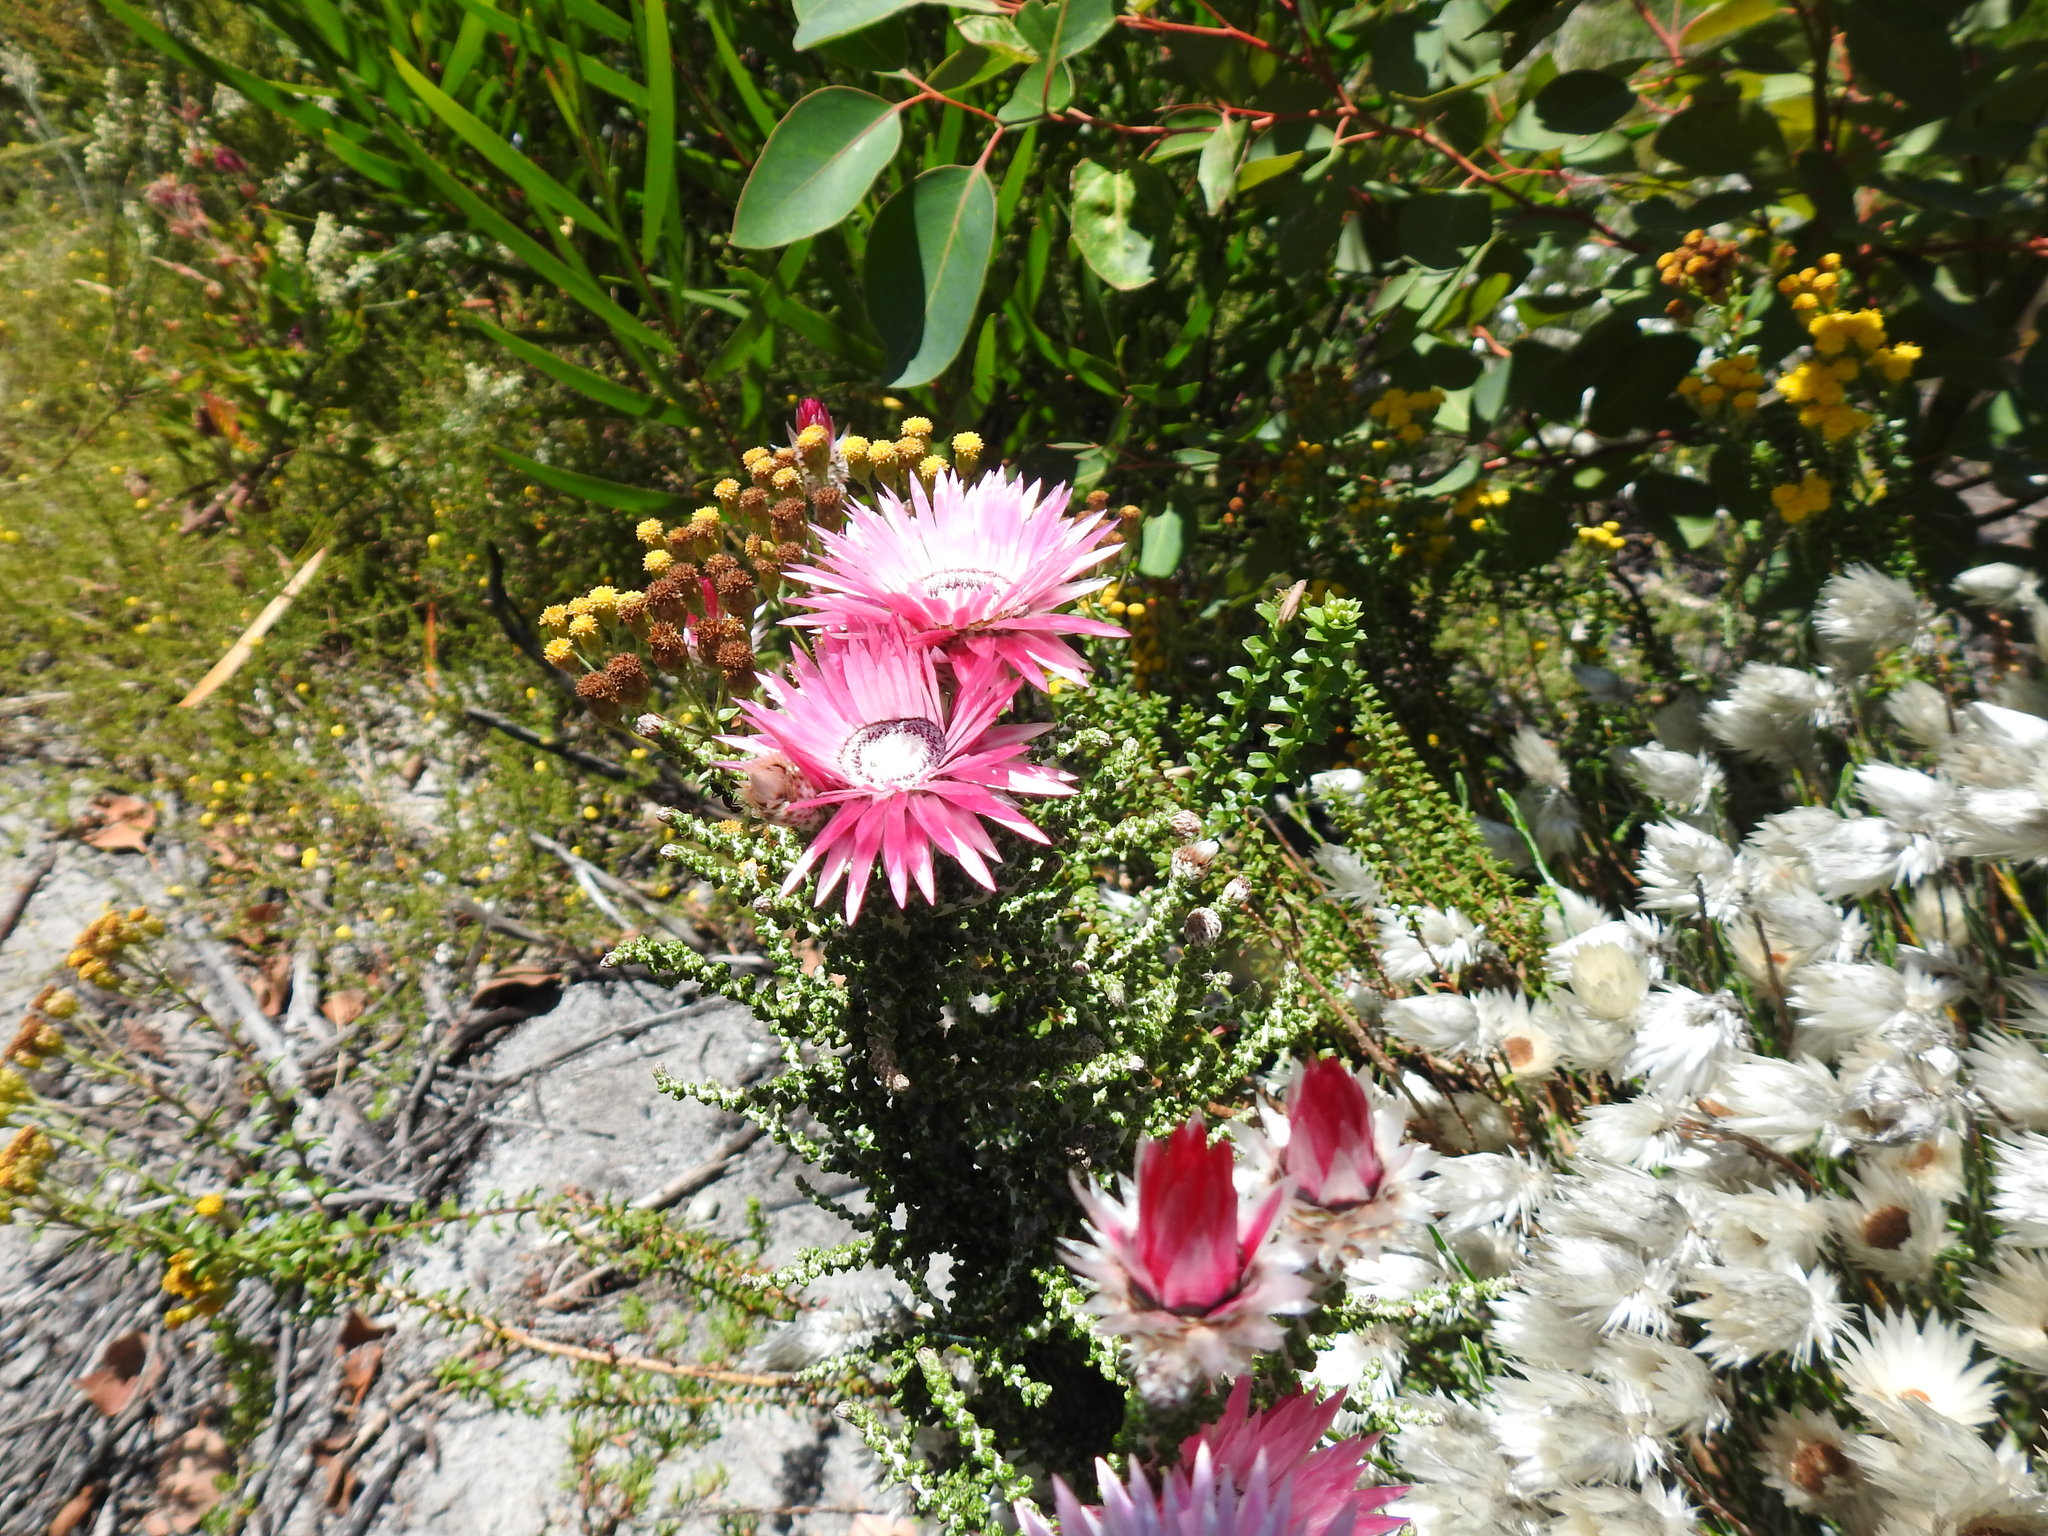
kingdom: Plantae
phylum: Tracheophyta
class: Magnoliopsida
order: Asterales
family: Asteraceae
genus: Phaenocoma
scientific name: Phaenocoma prolifera
